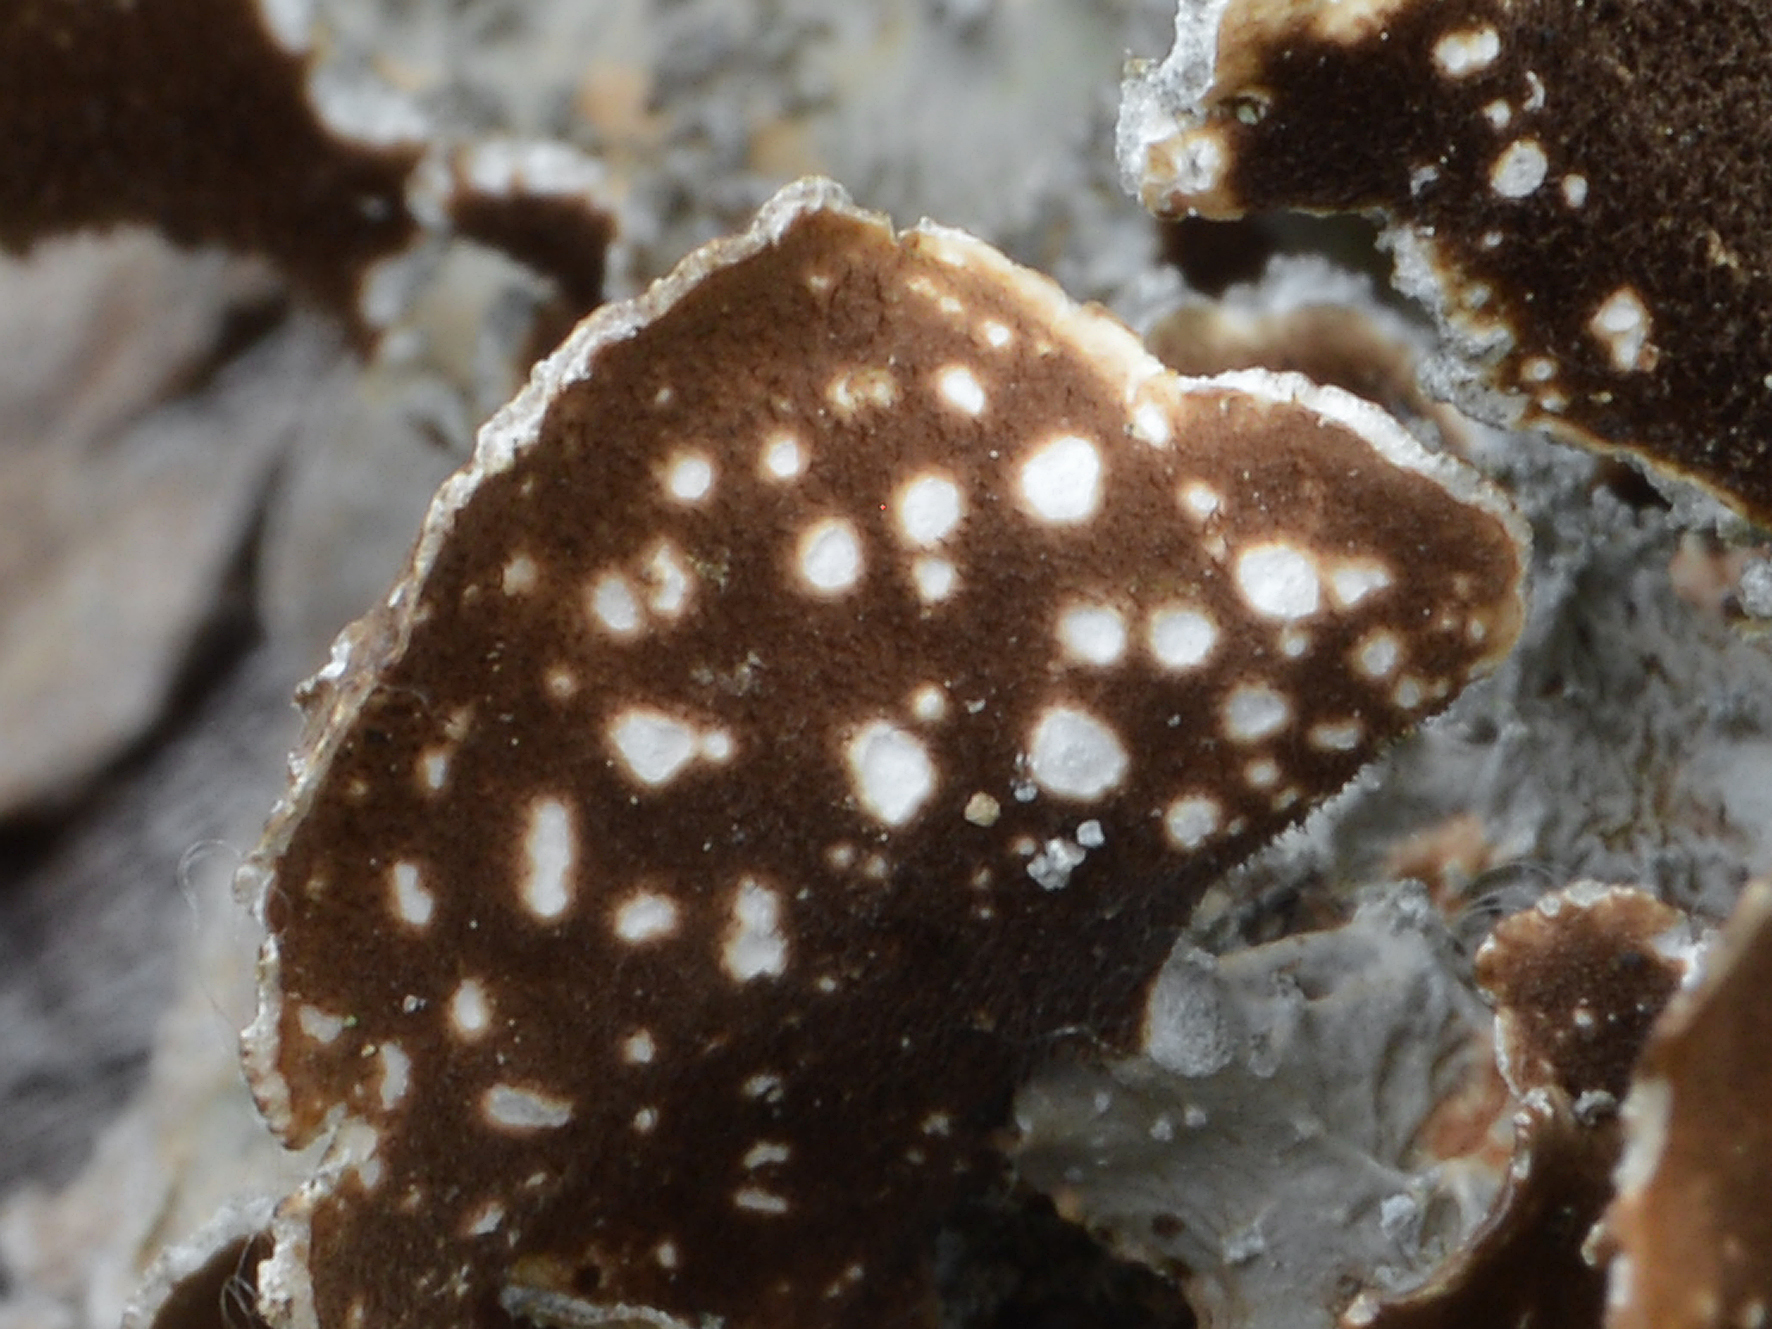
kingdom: Fungi
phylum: Ascomycota
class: Lecanoromycetes
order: Peltigerales
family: Lobariaceae
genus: Pseudocyphellaria
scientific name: Pseudocyphellaria haywardiorum
